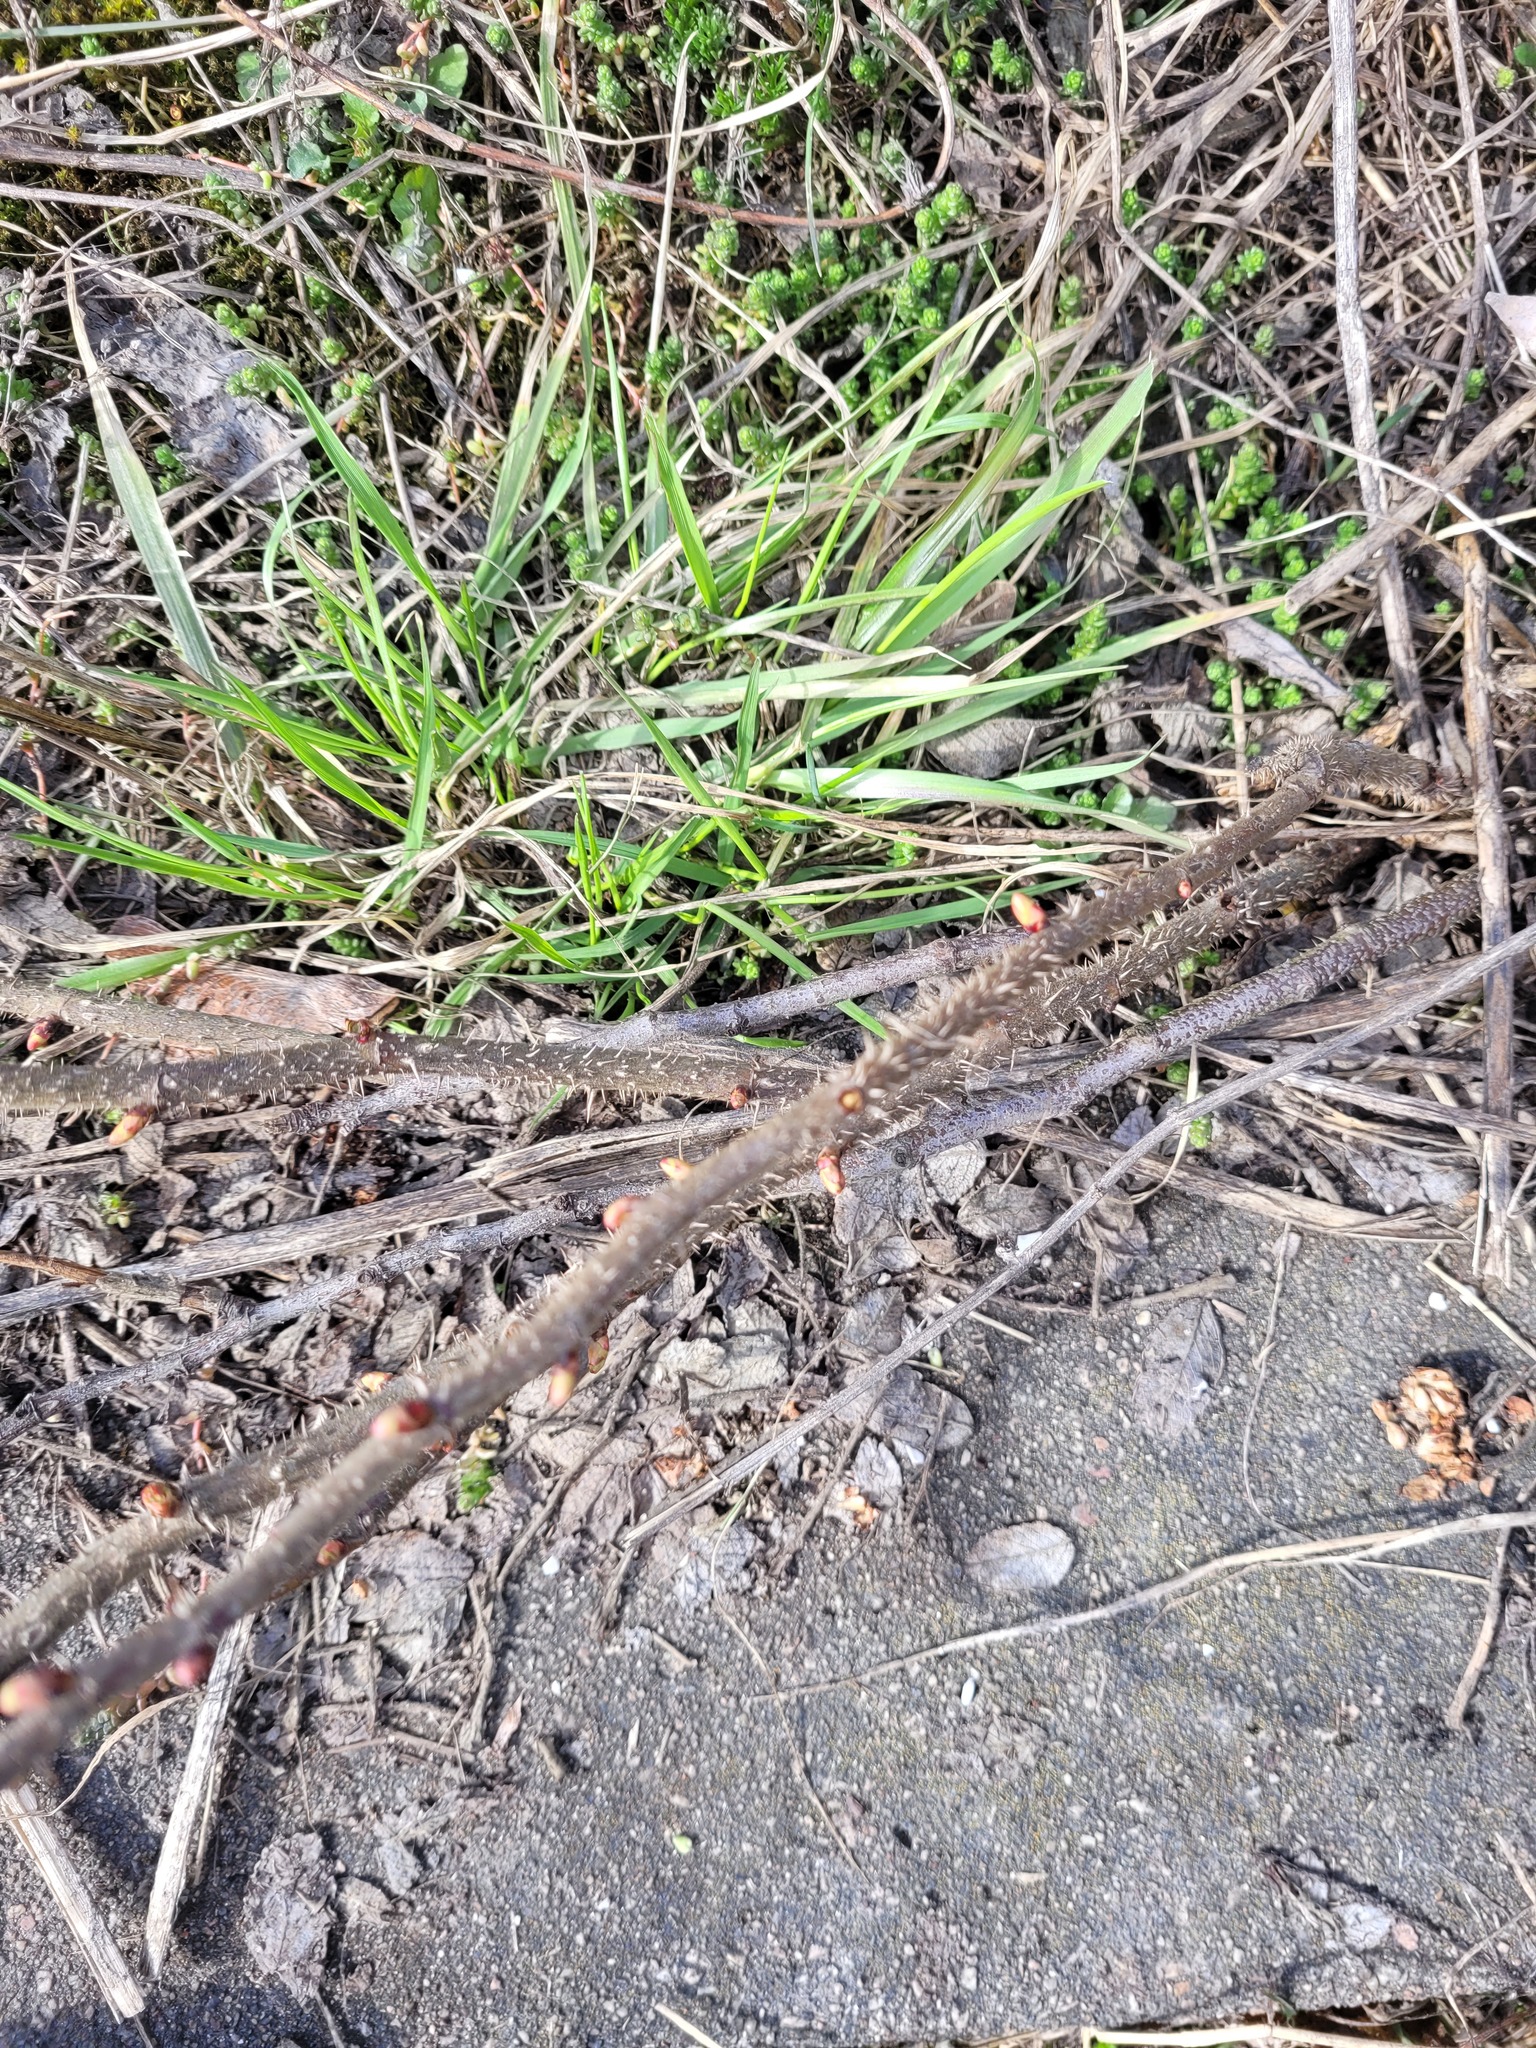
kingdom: Plantae
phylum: Tracheophyta
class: Magnoliopsida
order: Rosales
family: Rosaceae
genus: Rosa
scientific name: Rosa rugosa
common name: Japanese rose
